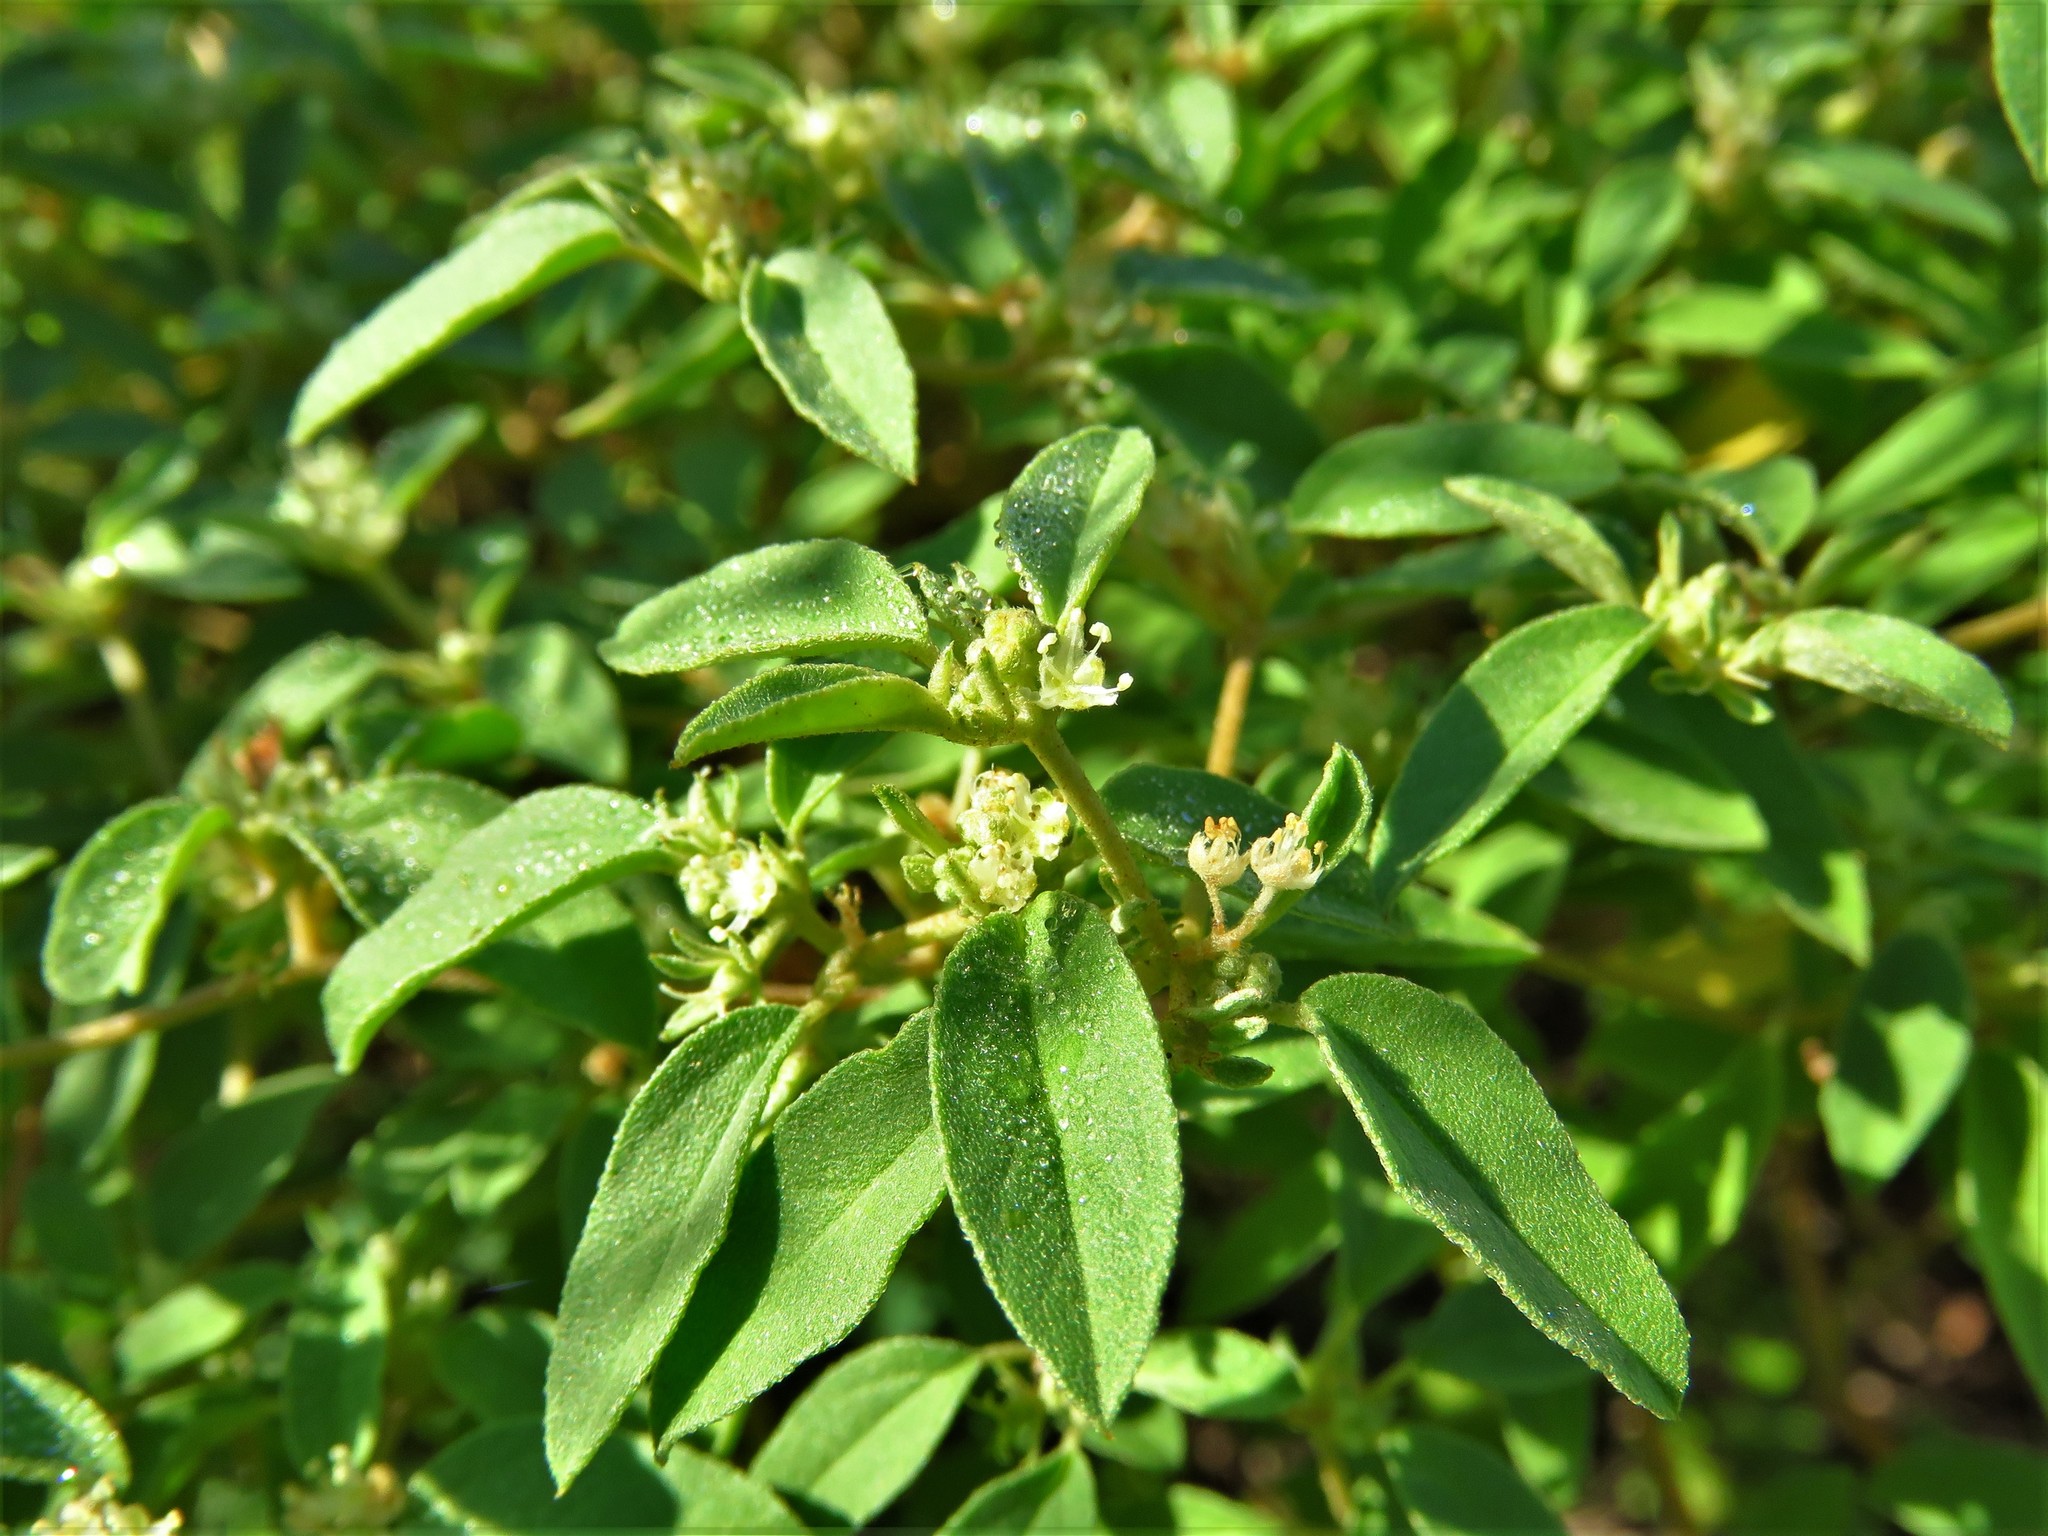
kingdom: Plantae
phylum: Tracheophyta
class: Magnoliopsida
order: Malpighiales
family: Euphorbiaceae
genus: Croton
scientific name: Croton monanthogynus
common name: One-seed croton
